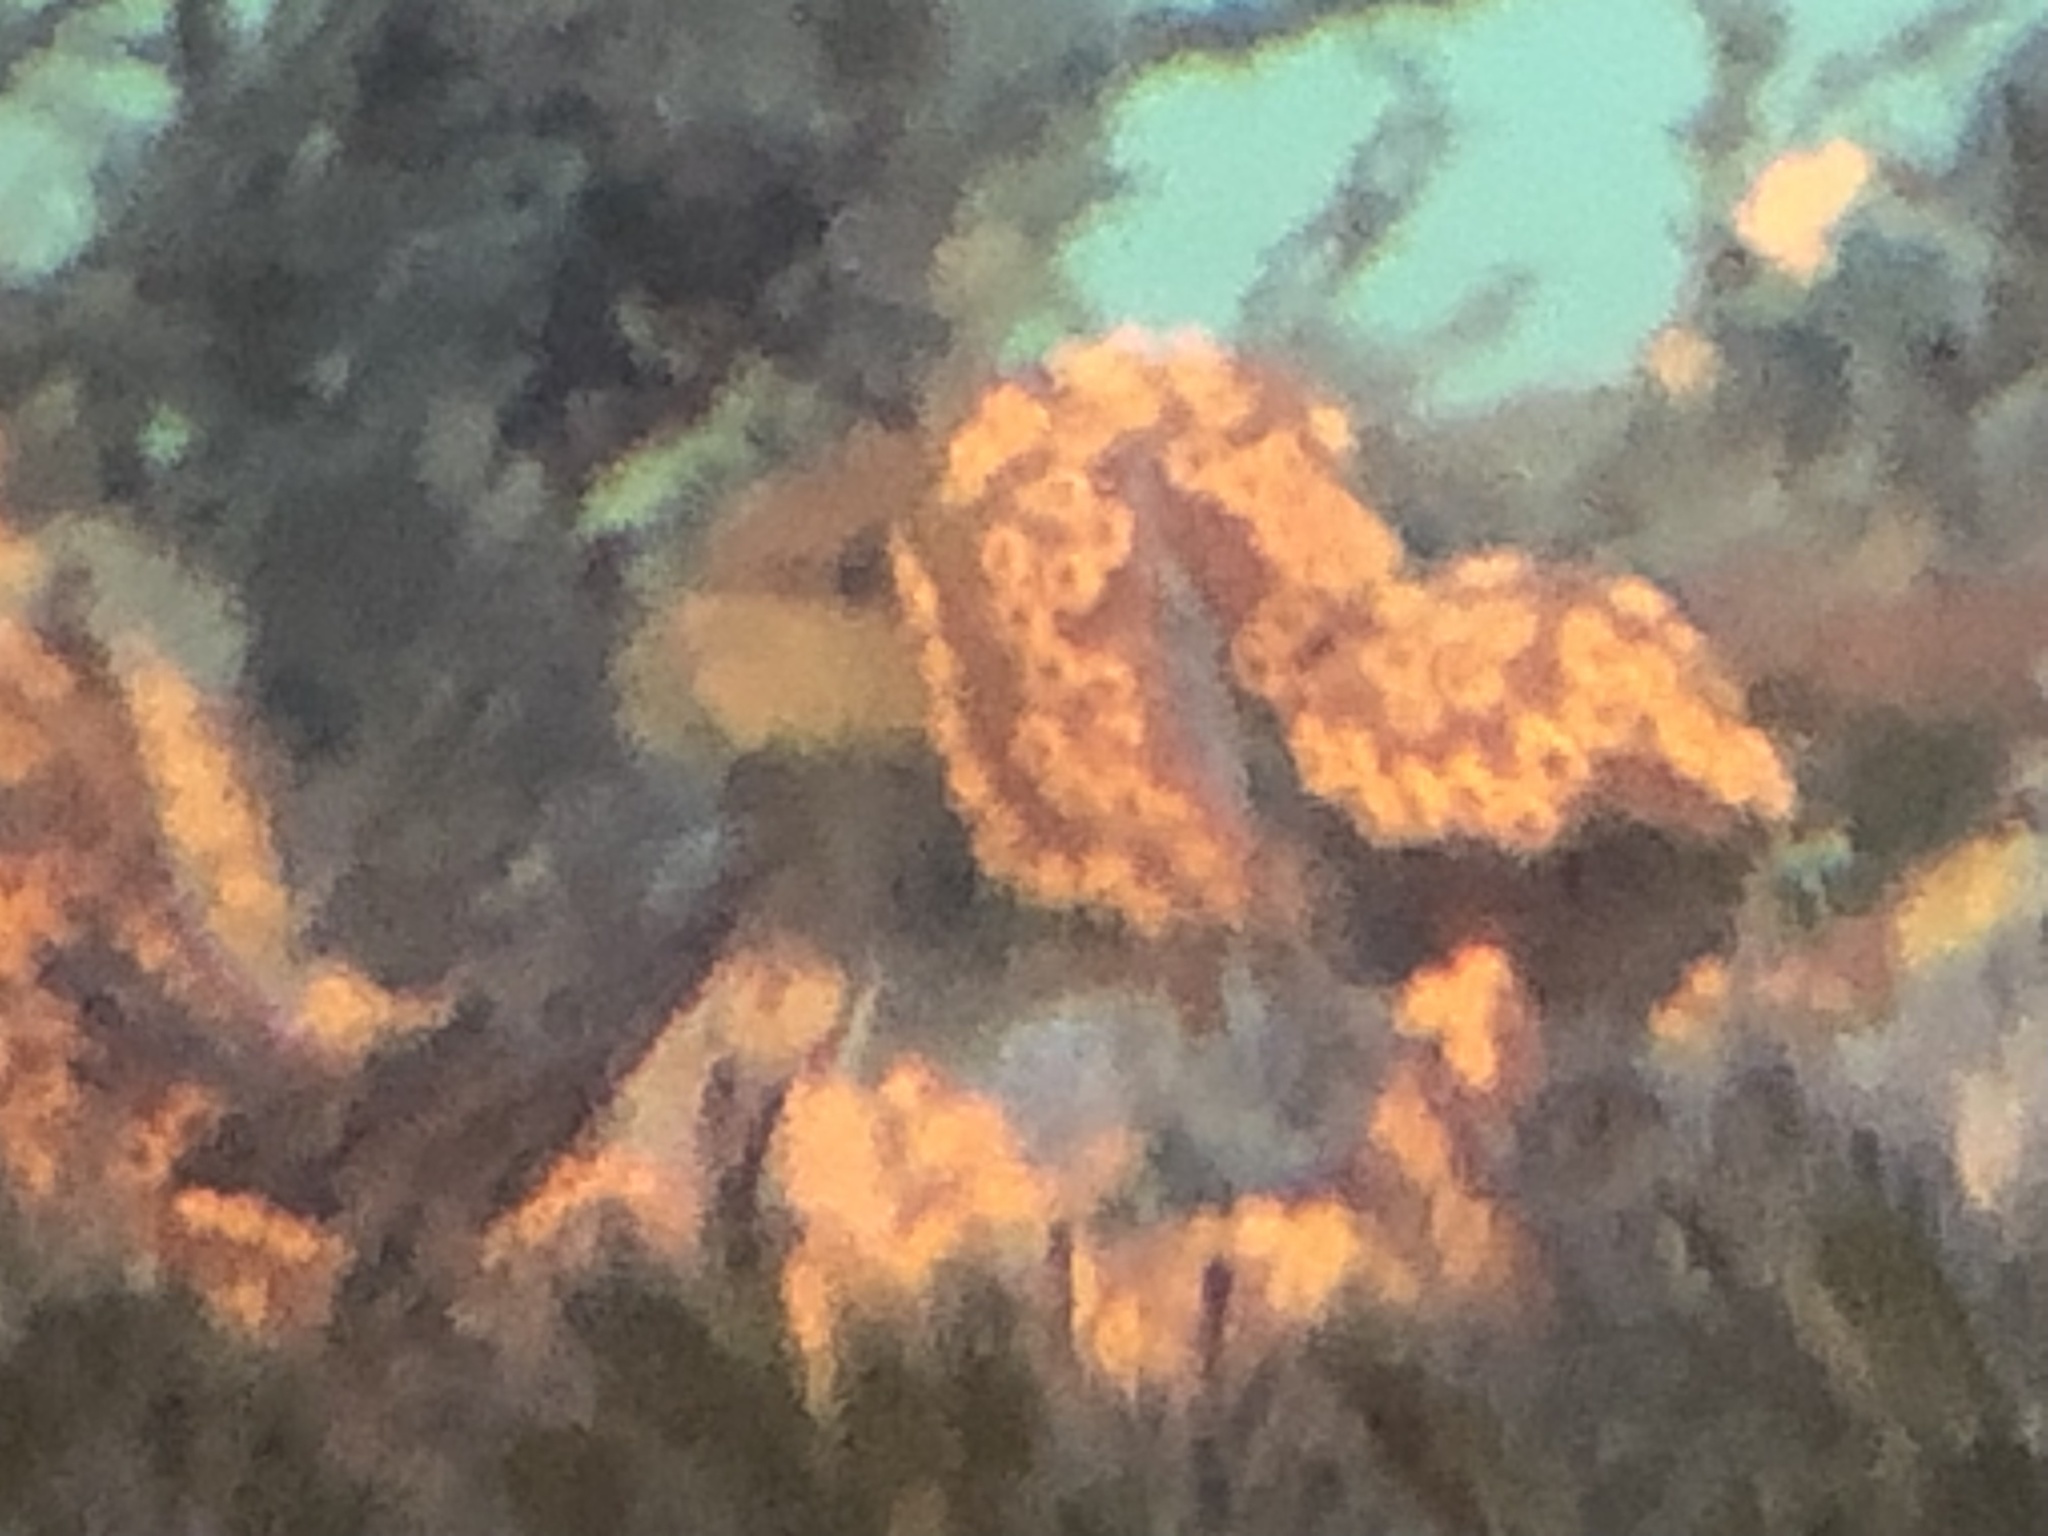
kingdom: Animalia
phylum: Chordata
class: Ascidiacea
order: Stolidobranchia
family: Styelidae
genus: Botrylloides
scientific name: Botrylloides diegensis
